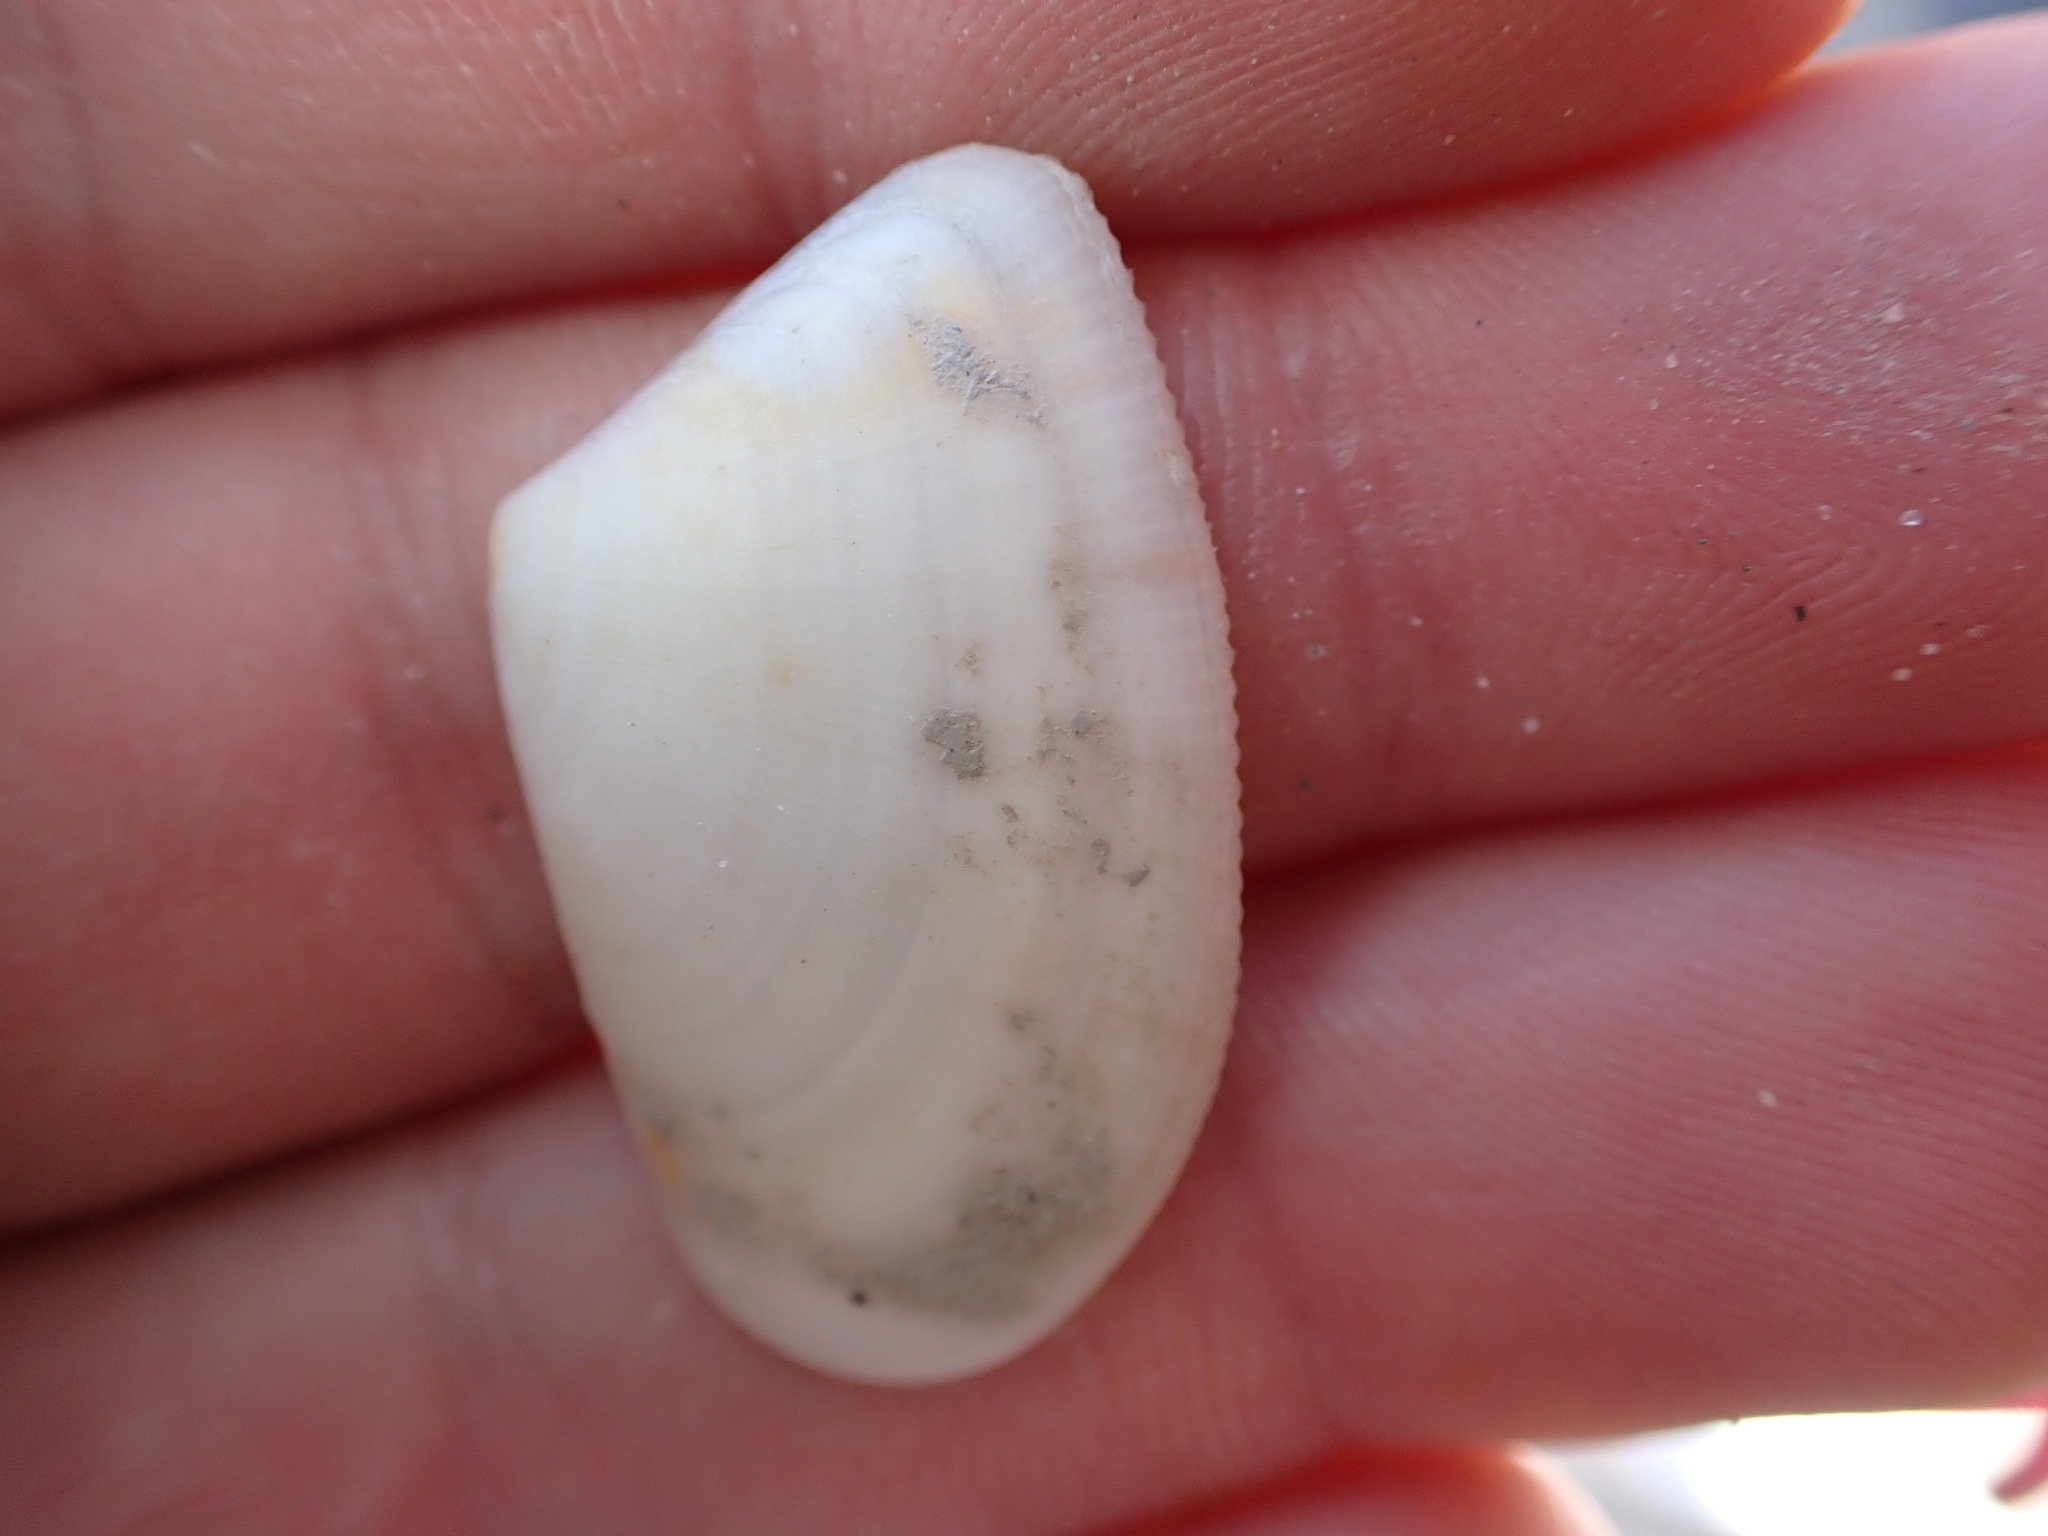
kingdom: Animalia
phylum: Mollusca
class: Bivalvia
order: Cardiida
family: Donacidae
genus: Donax
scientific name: Donax trunculus
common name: Truncate donax
